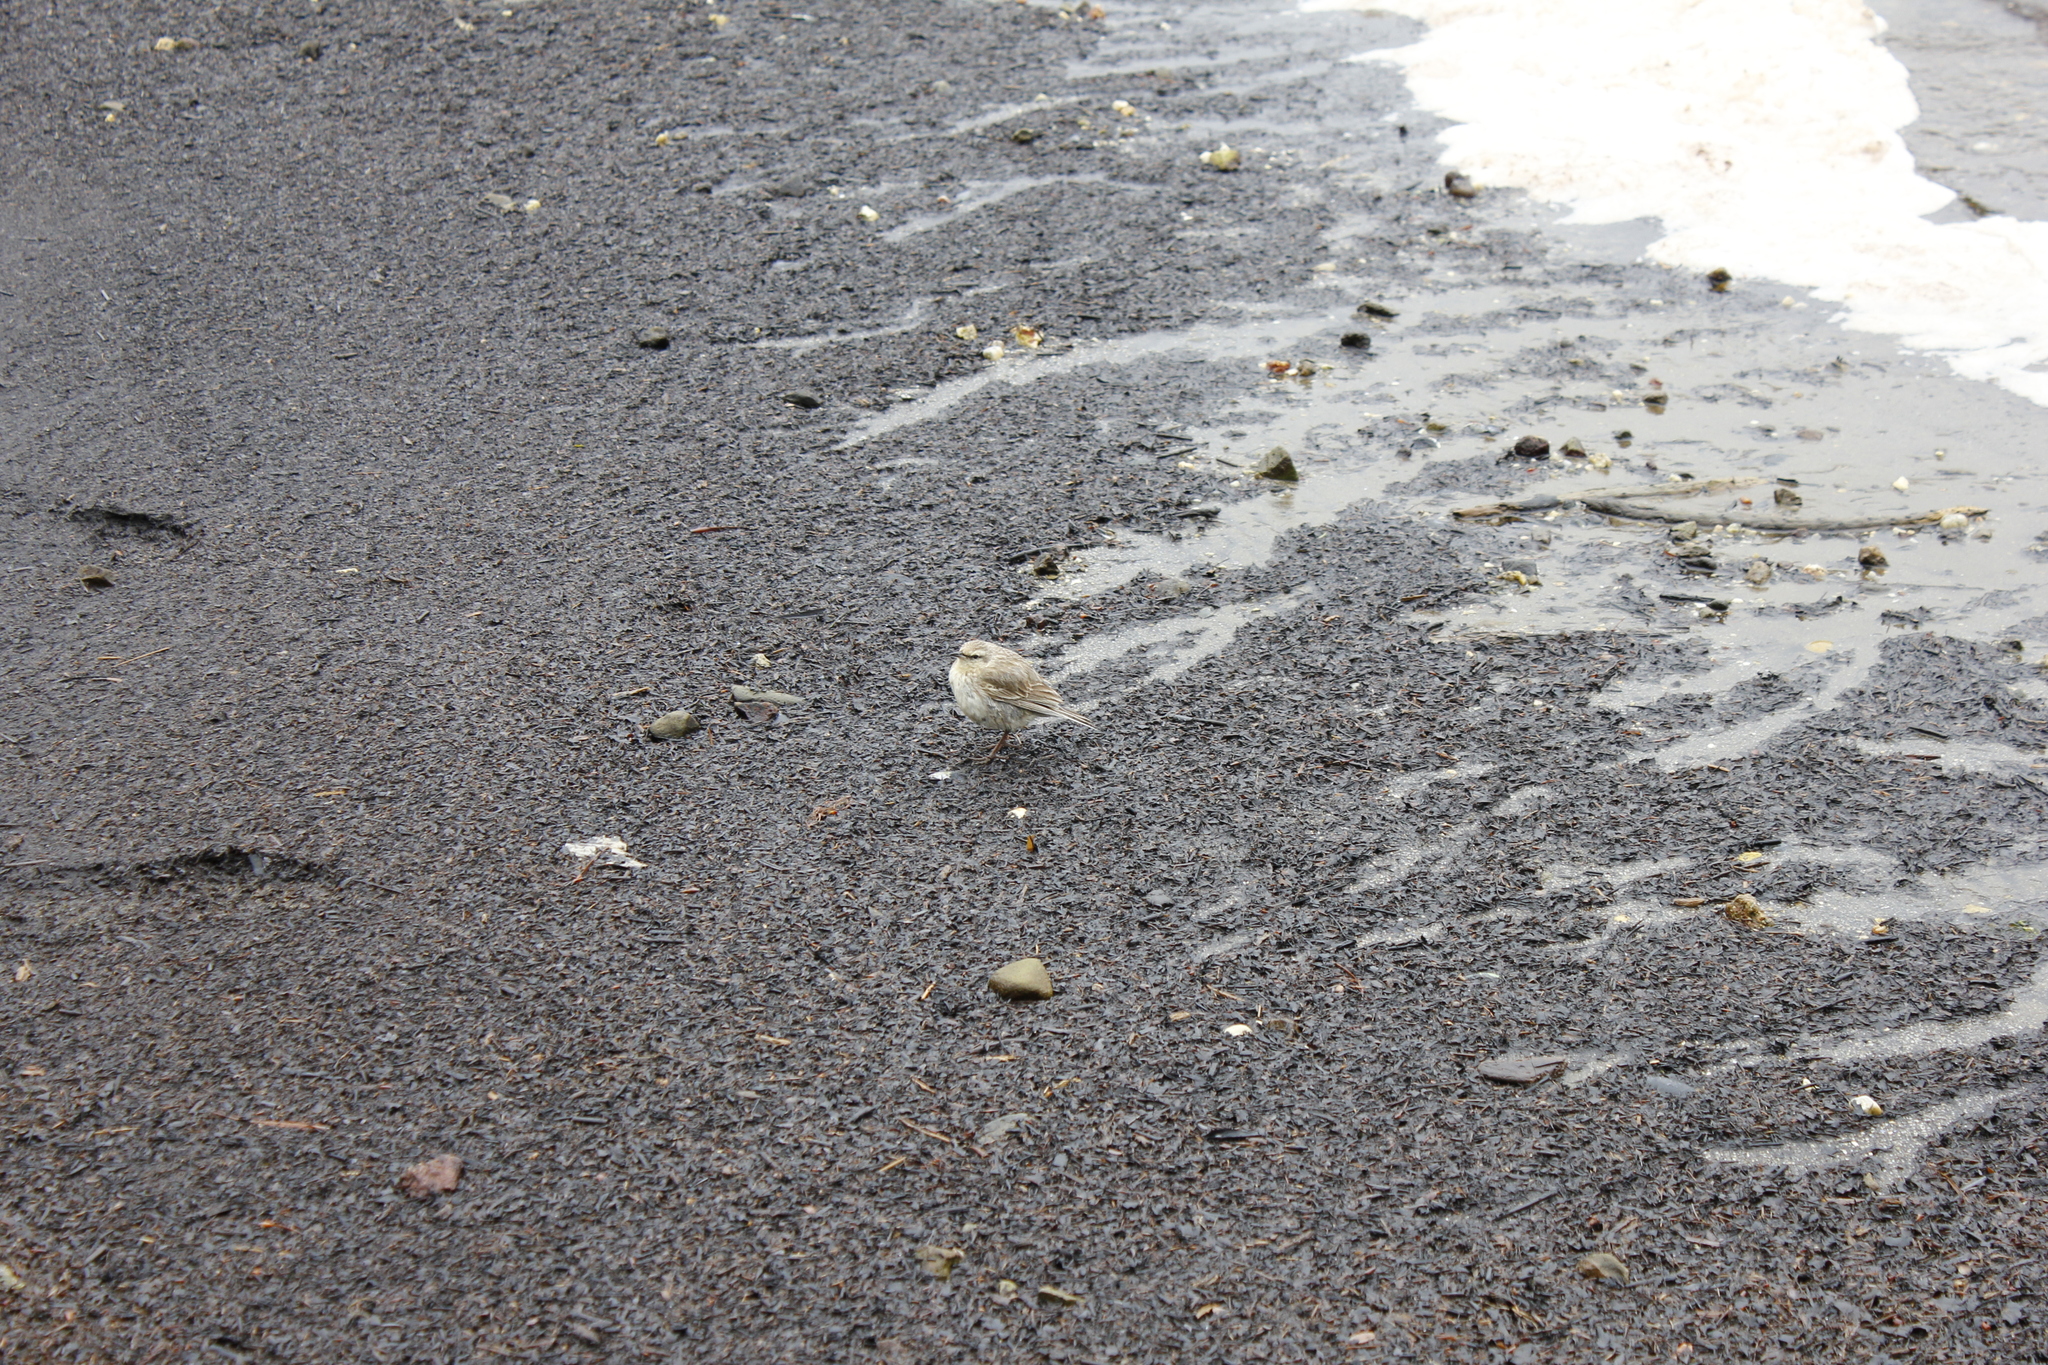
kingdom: Animalia
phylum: Chordata
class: Aves
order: Passeriformes
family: Motacillidae
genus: Anthus
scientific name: Anthus novaeseelandiae
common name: New zealand pipit
